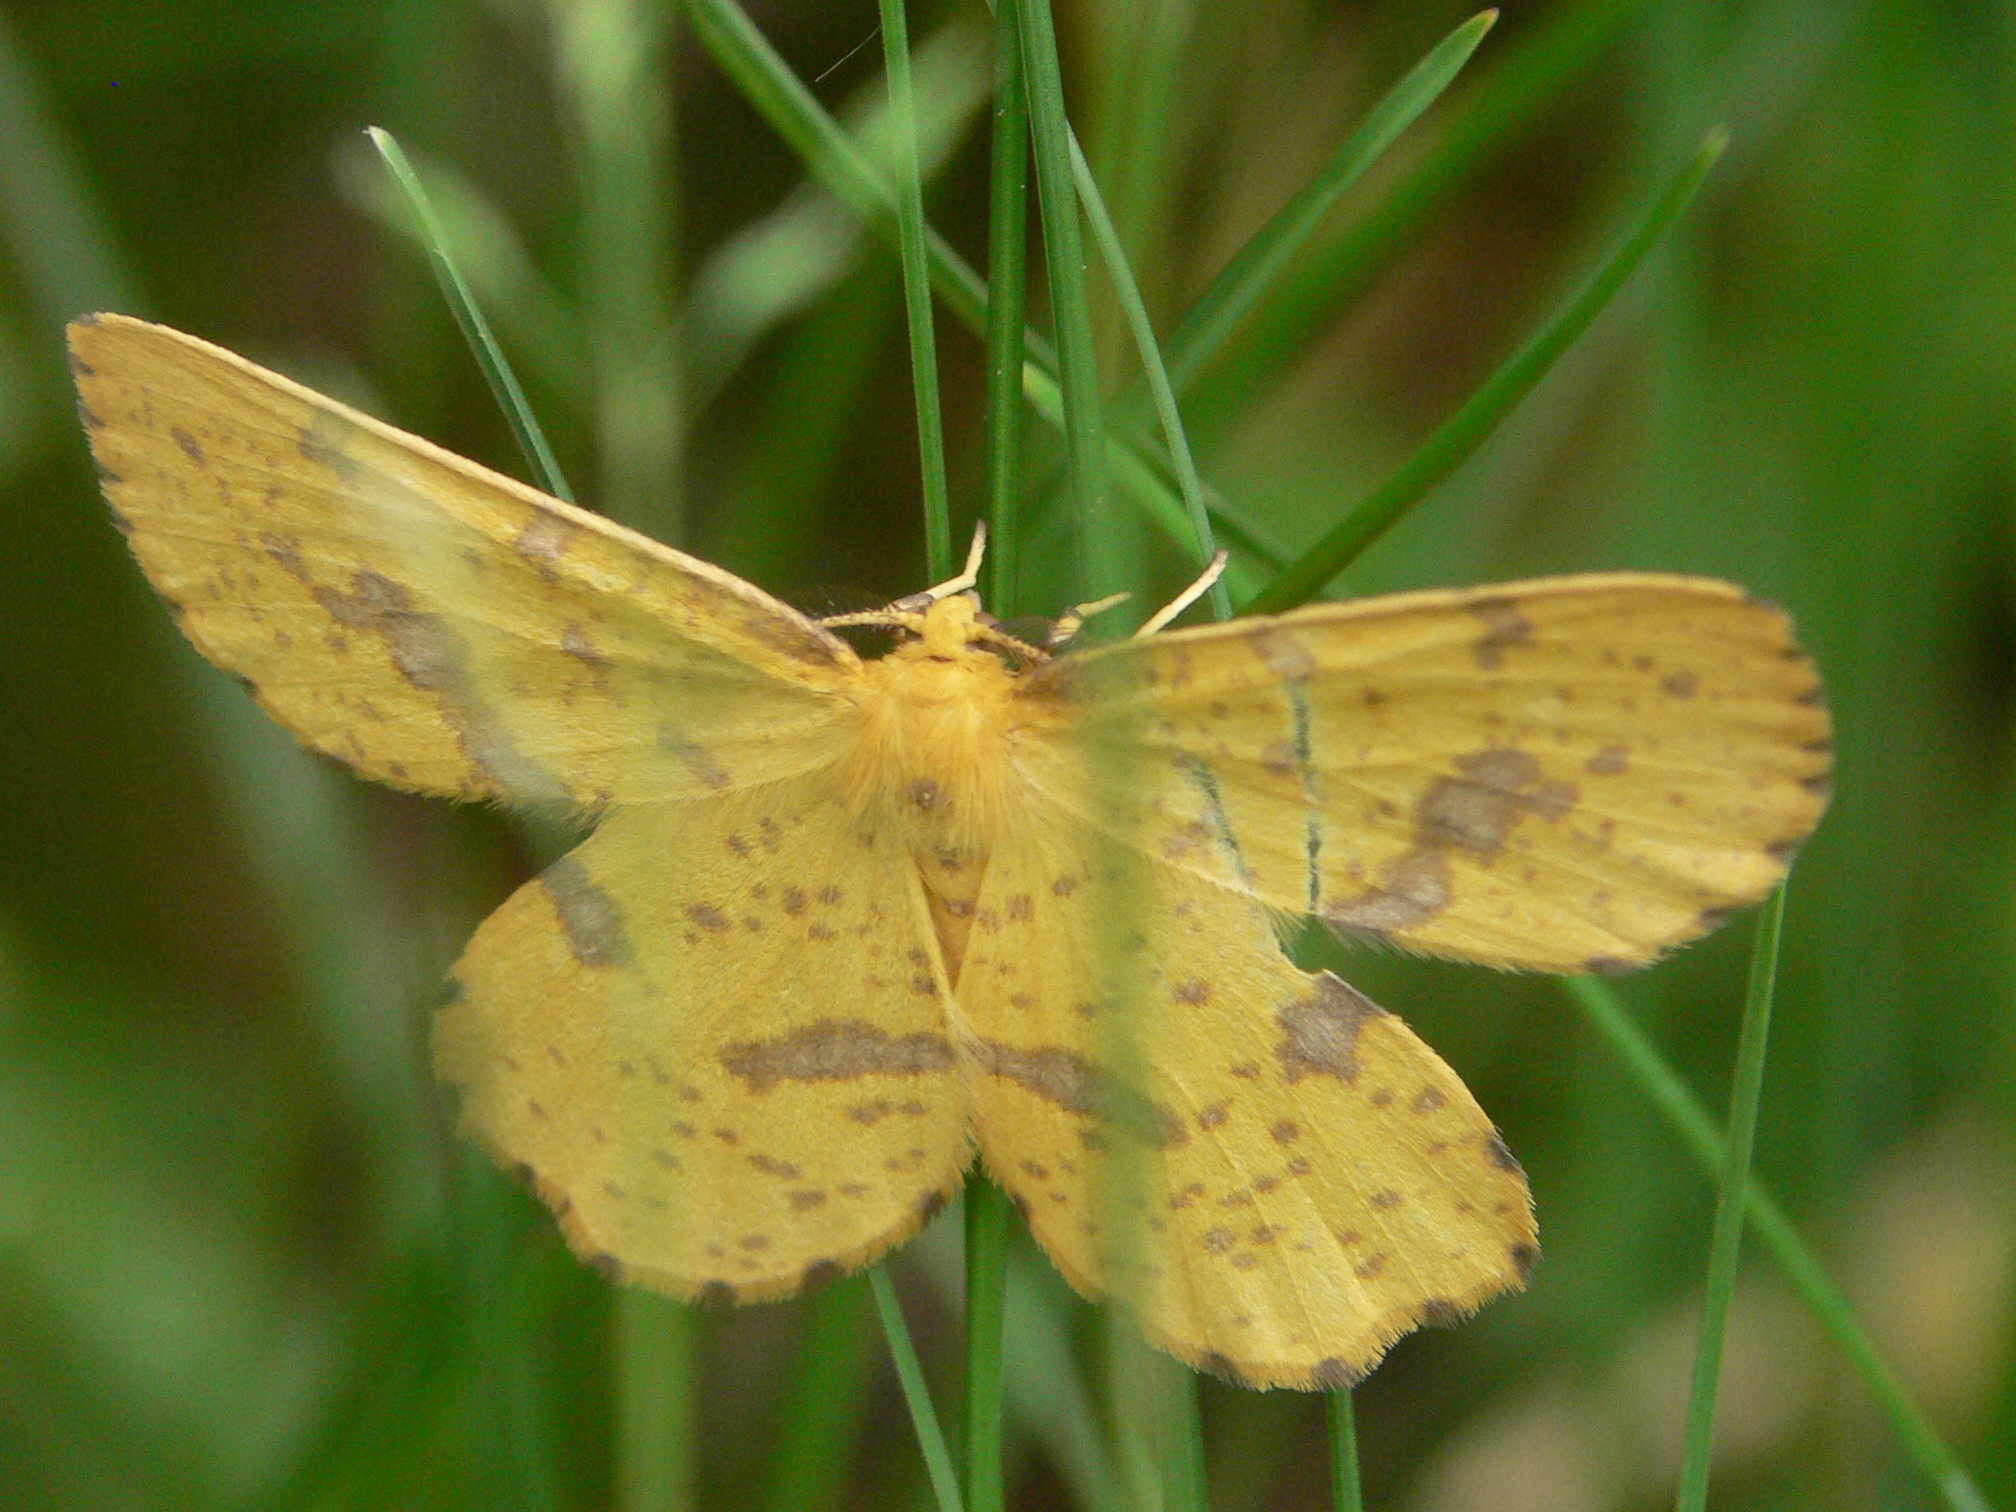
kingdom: Animalia
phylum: Arthropoda
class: Insecta
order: Lepidoptera
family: Geometridae
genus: Xanthotype
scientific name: Xanthotype
